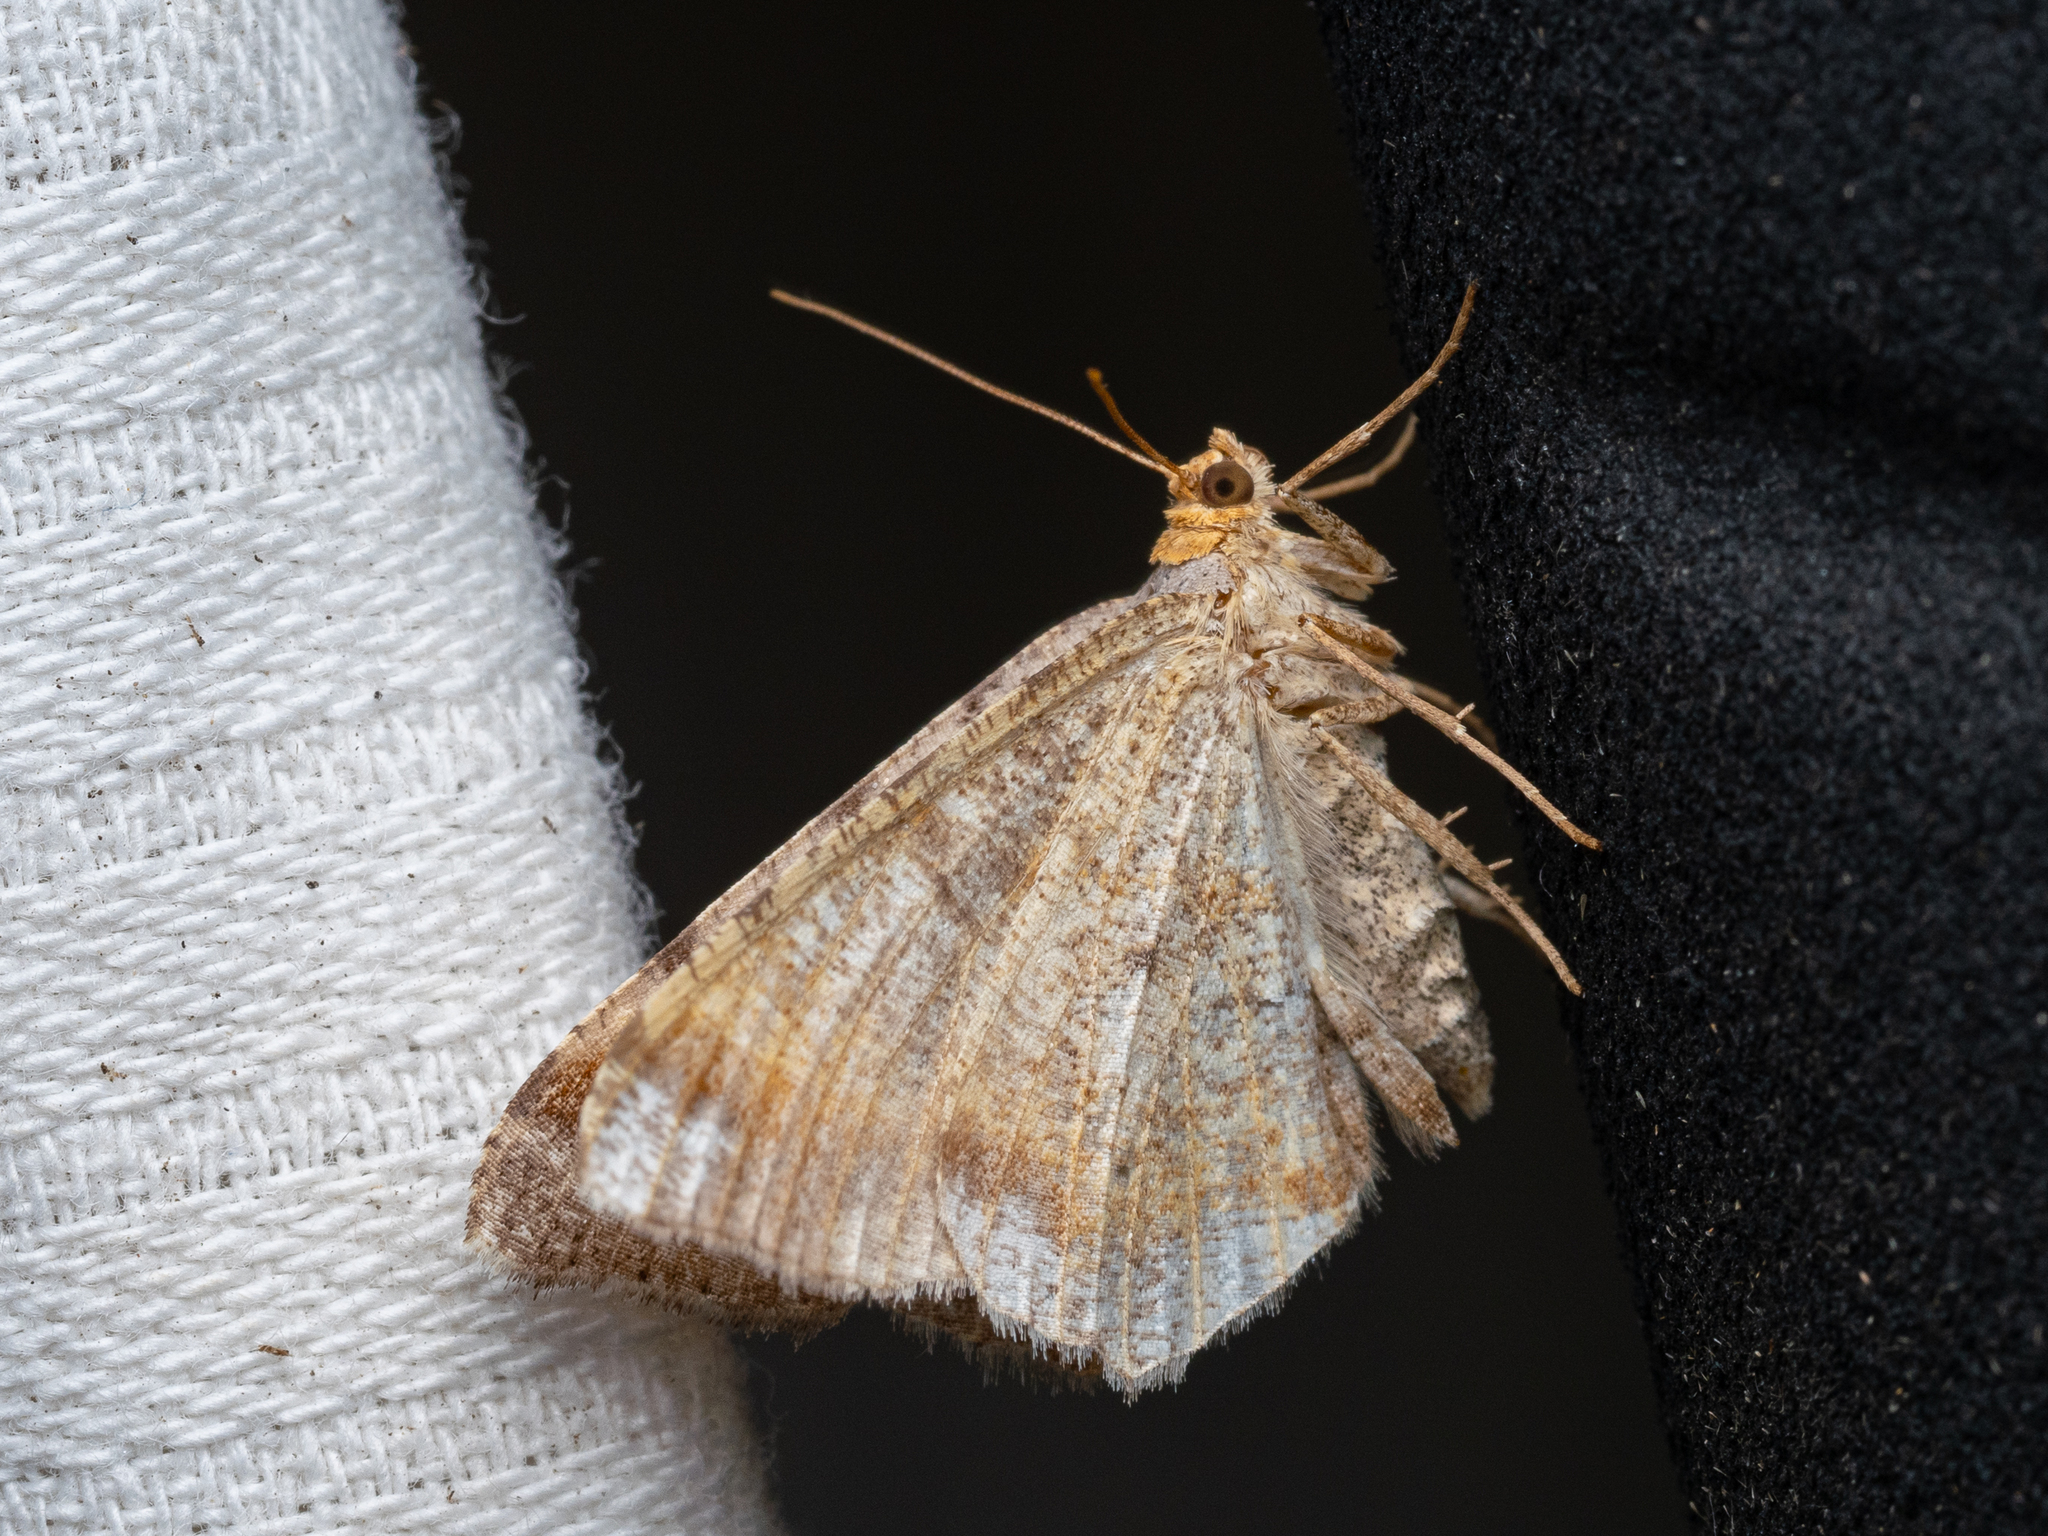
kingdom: Animalia
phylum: Arthropoda
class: Insecta
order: Lepidoptera
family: Geometridae
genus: Macaria
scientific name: Macaria liturata
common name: Tawny-barred angle
